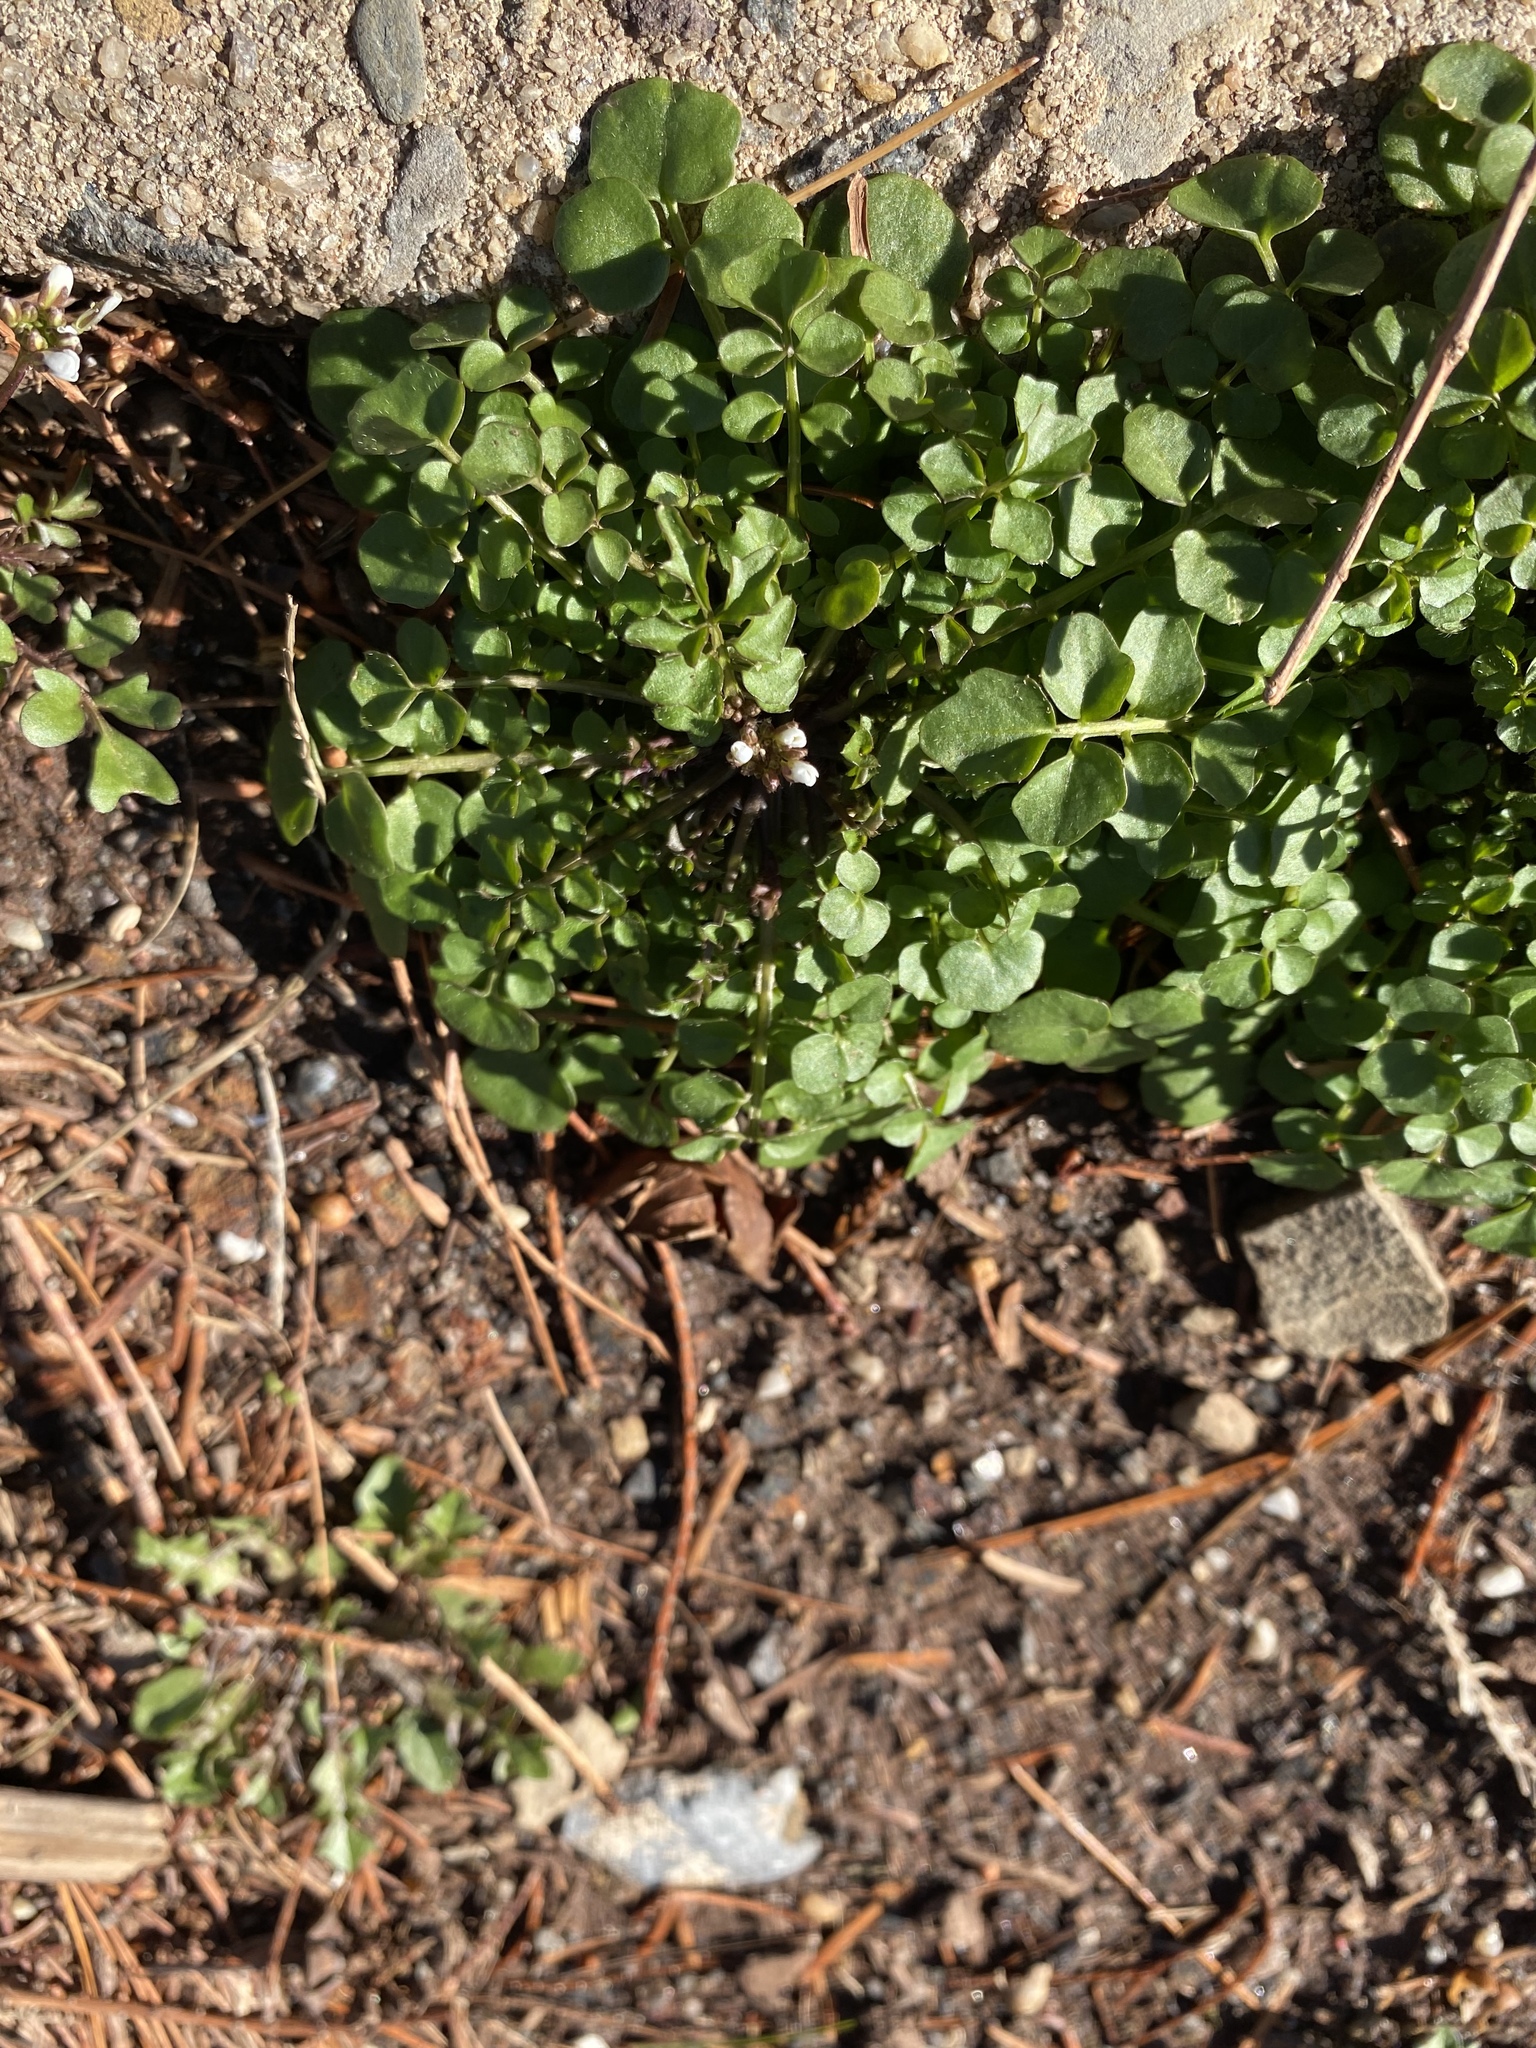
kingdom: Plantae
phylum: Tracheophyta
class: Magnoliopsida
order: Brassicales
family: Brassicaceae
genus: Cardamine
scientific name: Cardamine hirsuta
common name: Hairy bittercress
